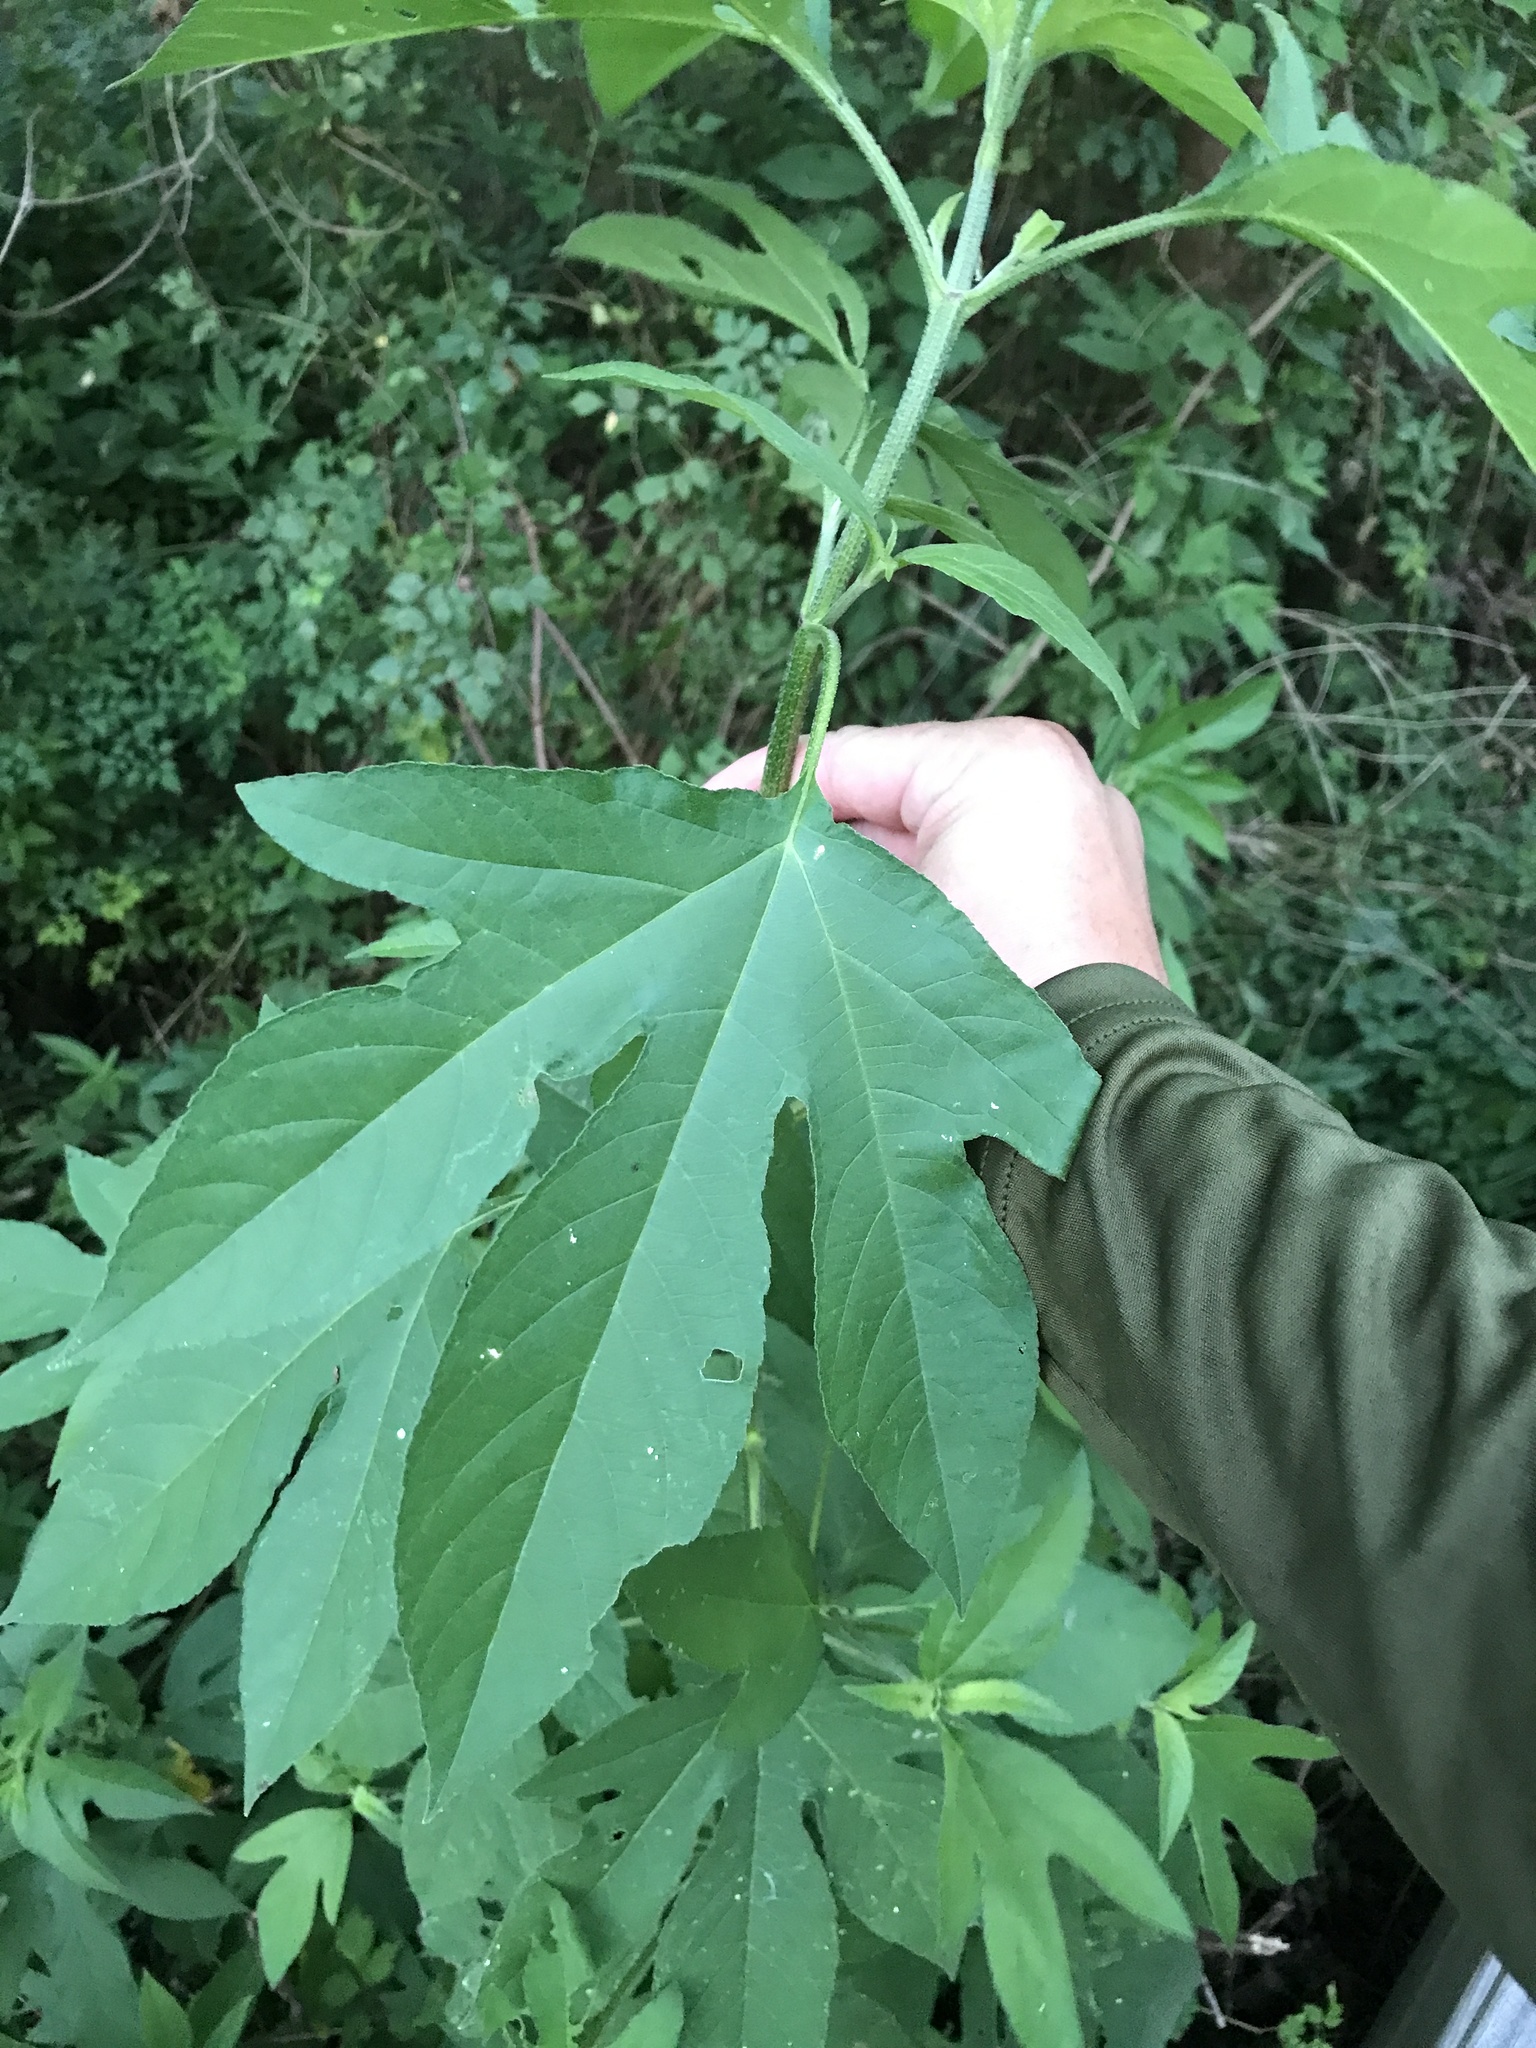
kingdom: Plantae
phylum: Tracheophyta
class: Magnoliopsida
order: Asterales
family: Asteraceae
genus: Ambrosia
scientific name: Ambrosia trifida
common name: Giant ragweed
